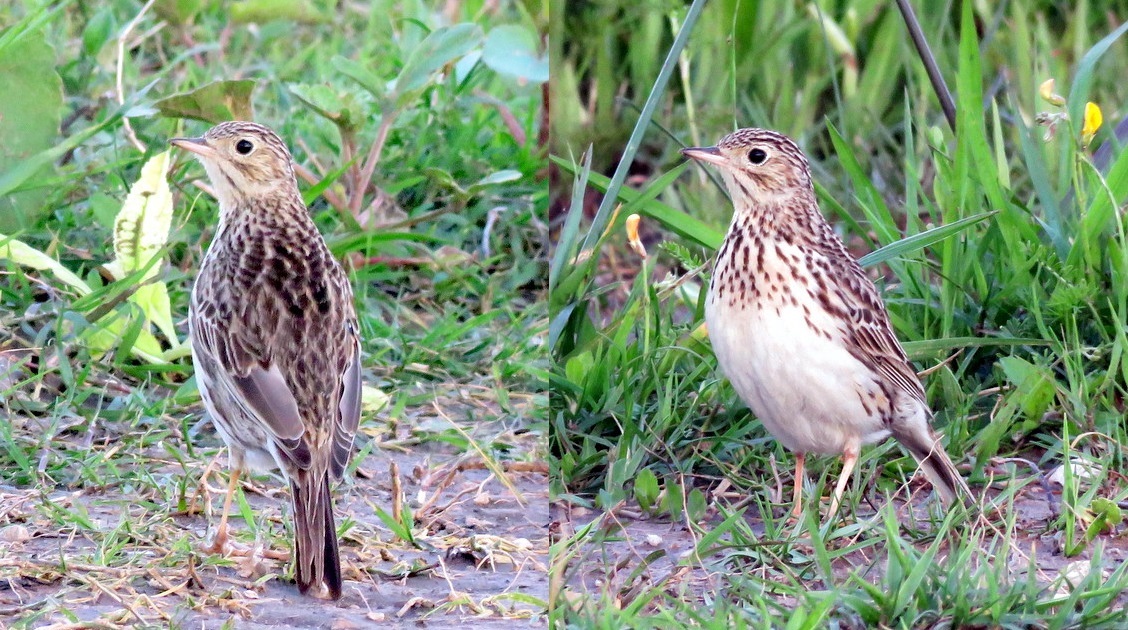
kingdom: Animalia
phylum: Chordata
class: Aves
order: Passeriformes
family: Motacillidae
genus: Anthus
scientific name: Anthus furcatus
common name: Short-billed pipit
